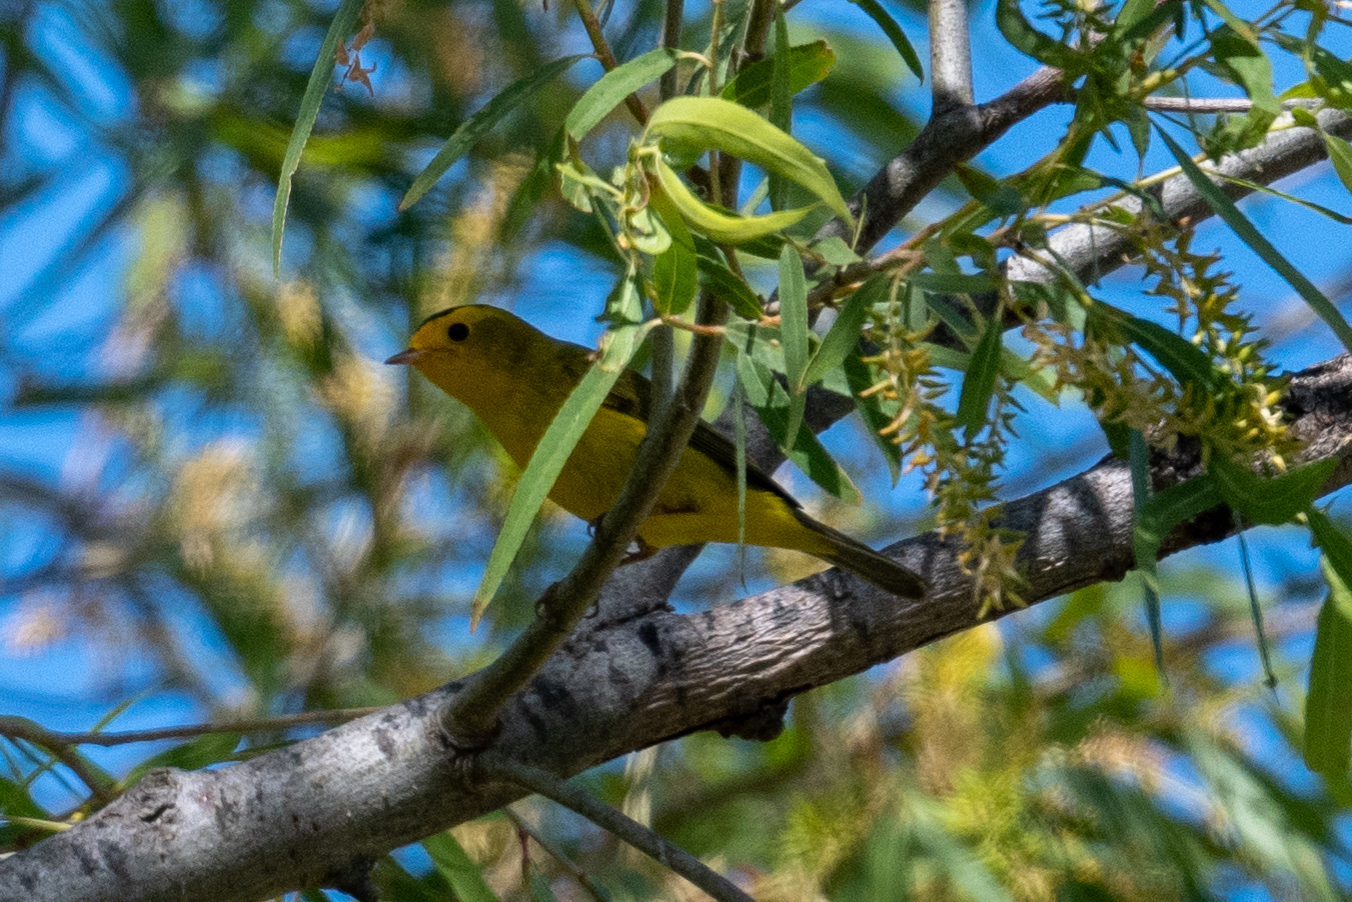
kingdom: Animalia
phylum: Chordata
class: Aves
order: Passeriformes
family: Parulidae
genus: Cardellina
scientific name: Cardellina pusilla
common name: Wilson's warbler
